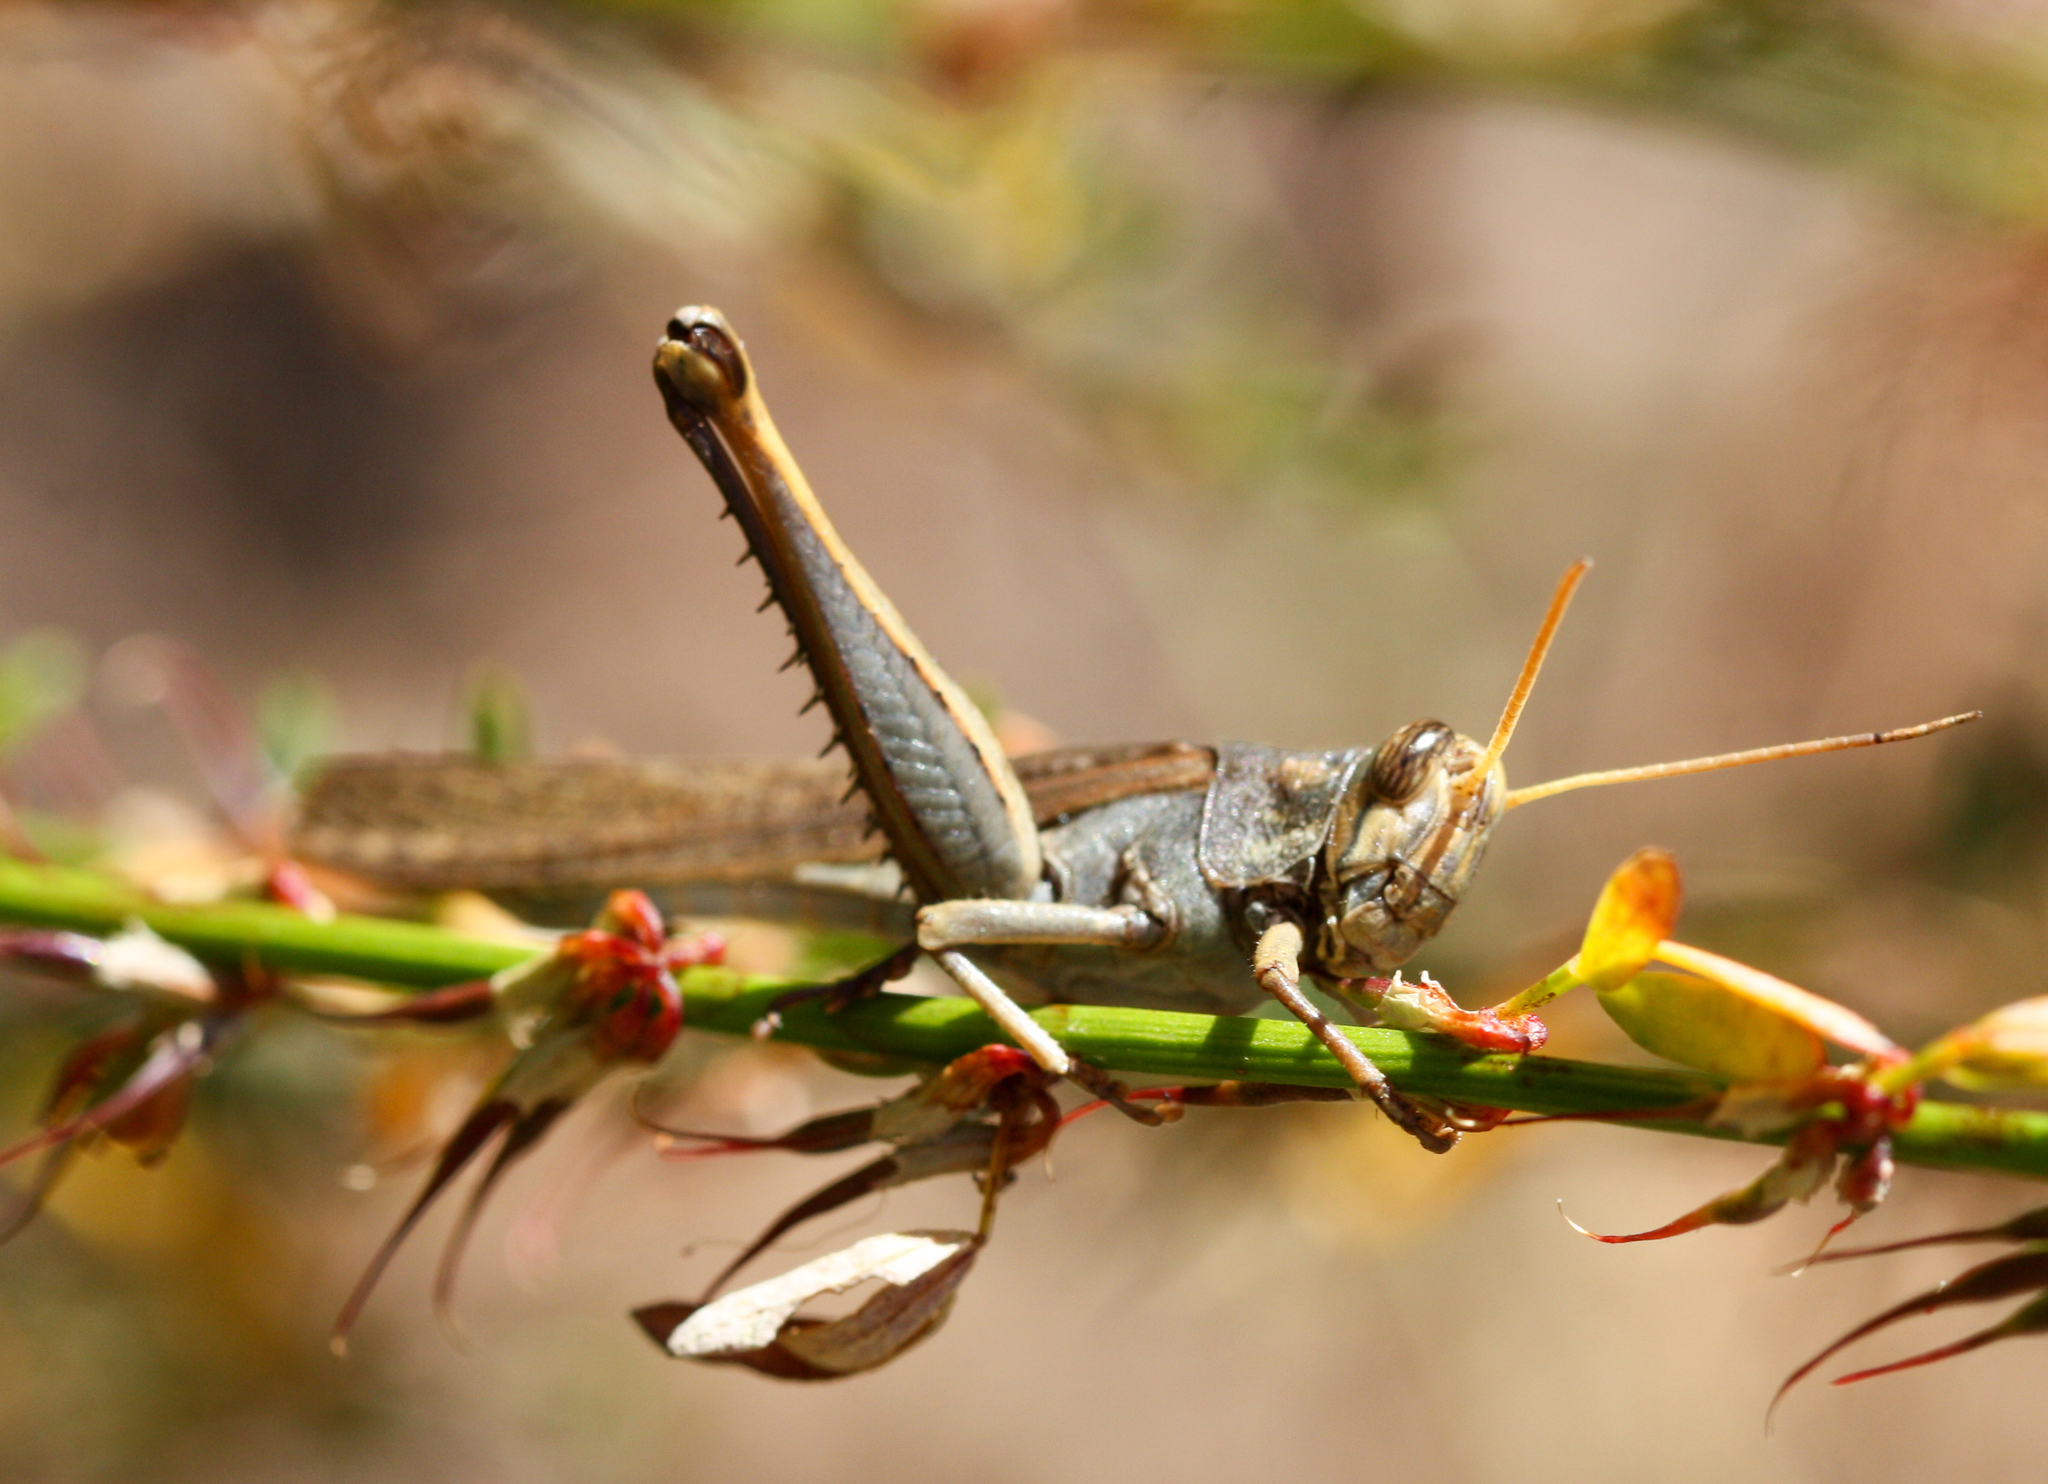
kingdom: Animalia
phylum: Arthropoda
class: Insecta
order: Orthoptera
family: Acrididae
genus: Schistocerca
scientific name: Schistocerca nitens
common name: Vagrant grasshopper
